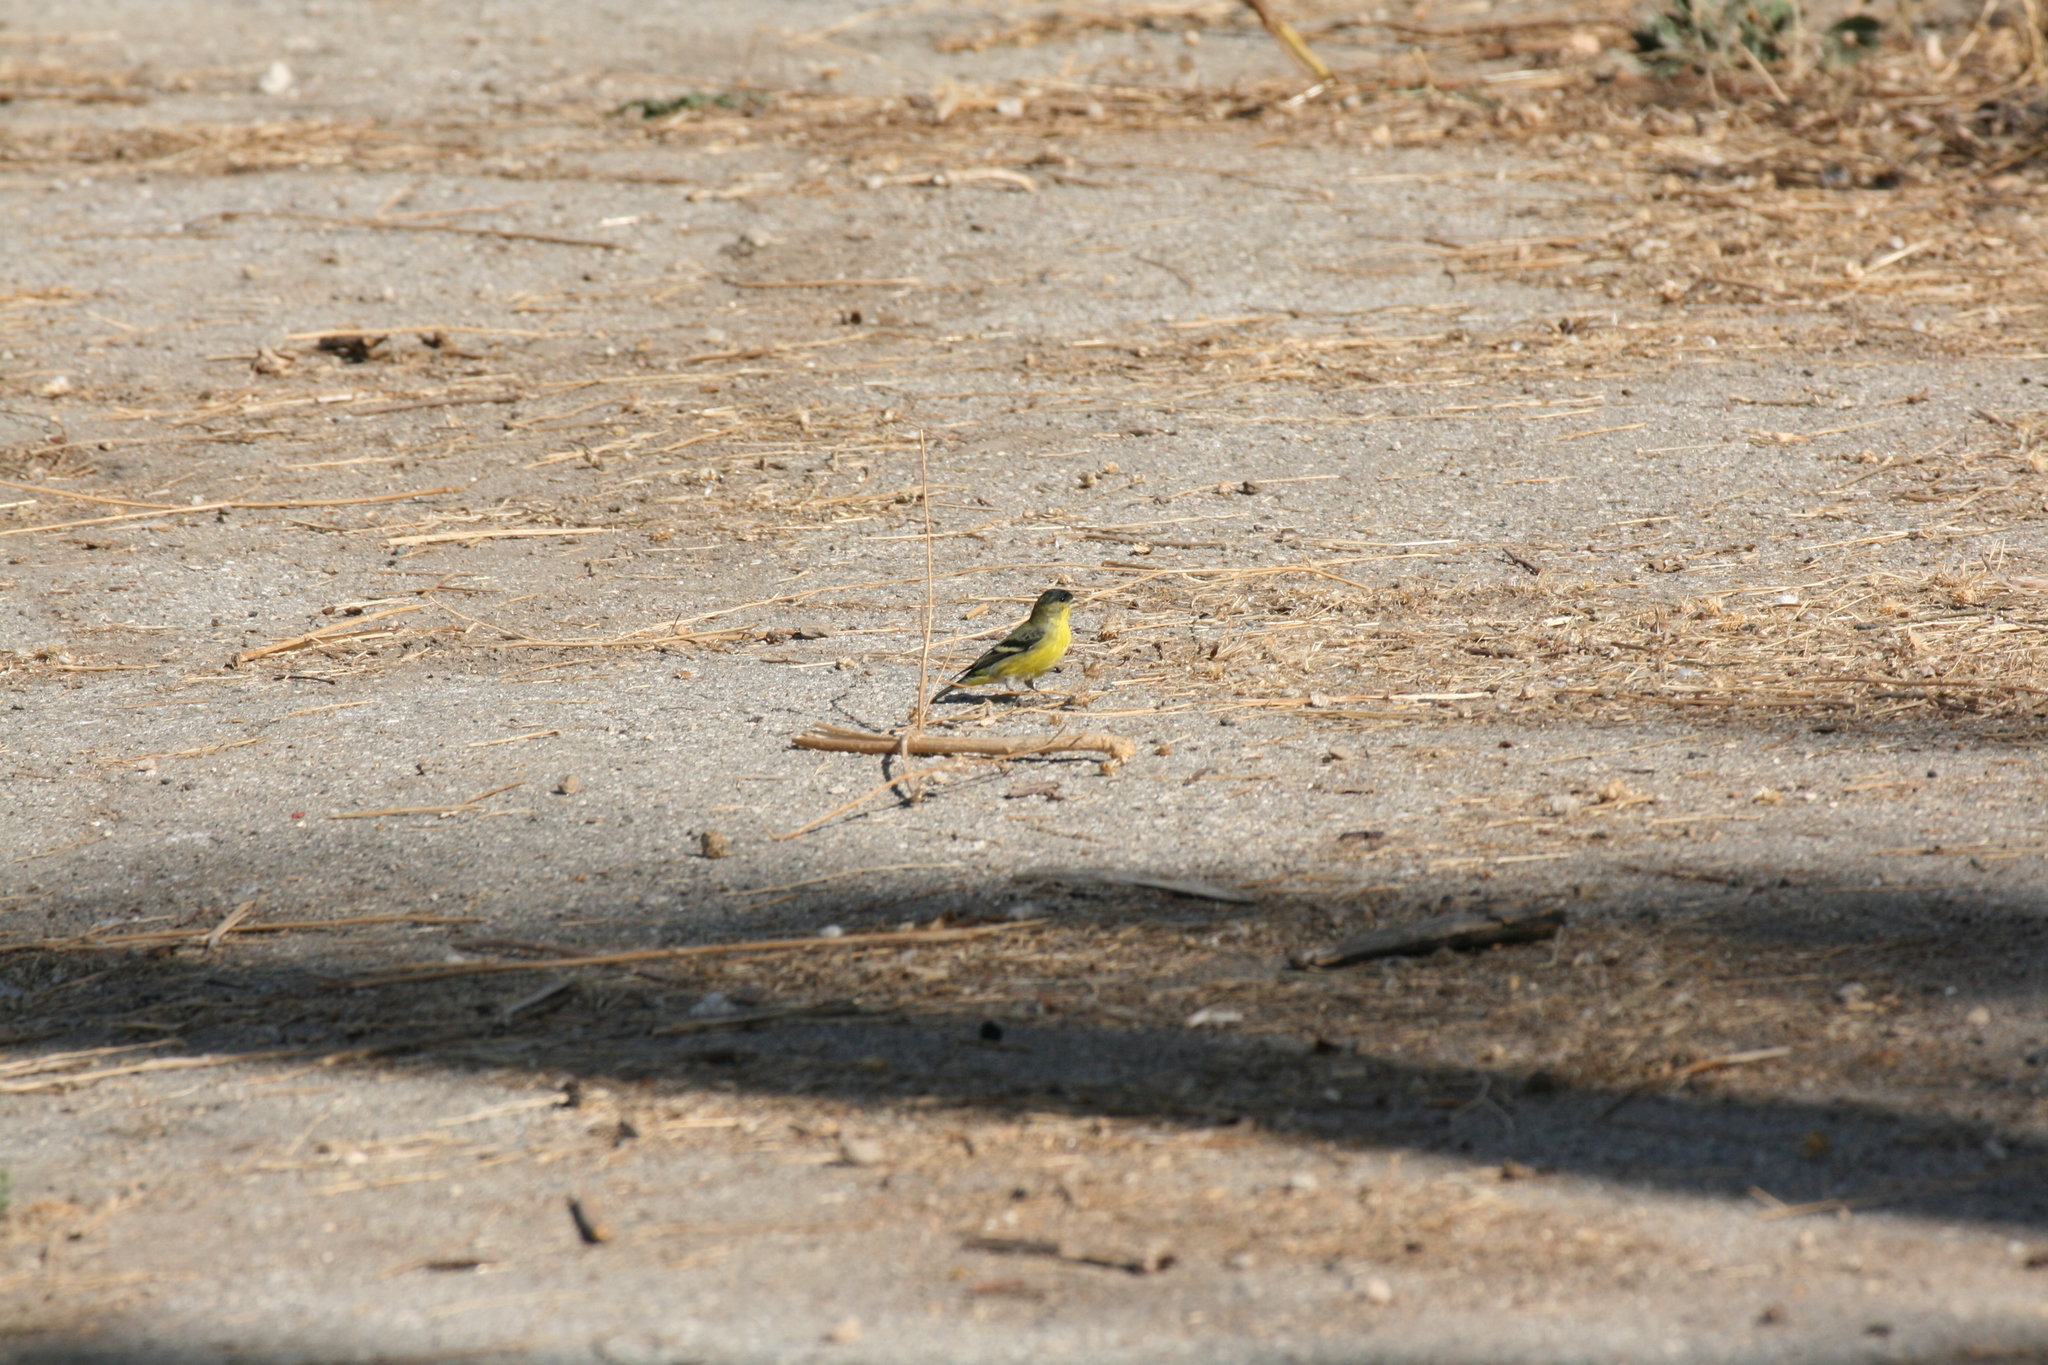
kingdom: Animalia
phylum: Chordata
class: Aves
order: Passeriformes
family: Fringillidae
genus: Spinus
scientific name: Spinus psaltria
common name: Lesser goldfinch
